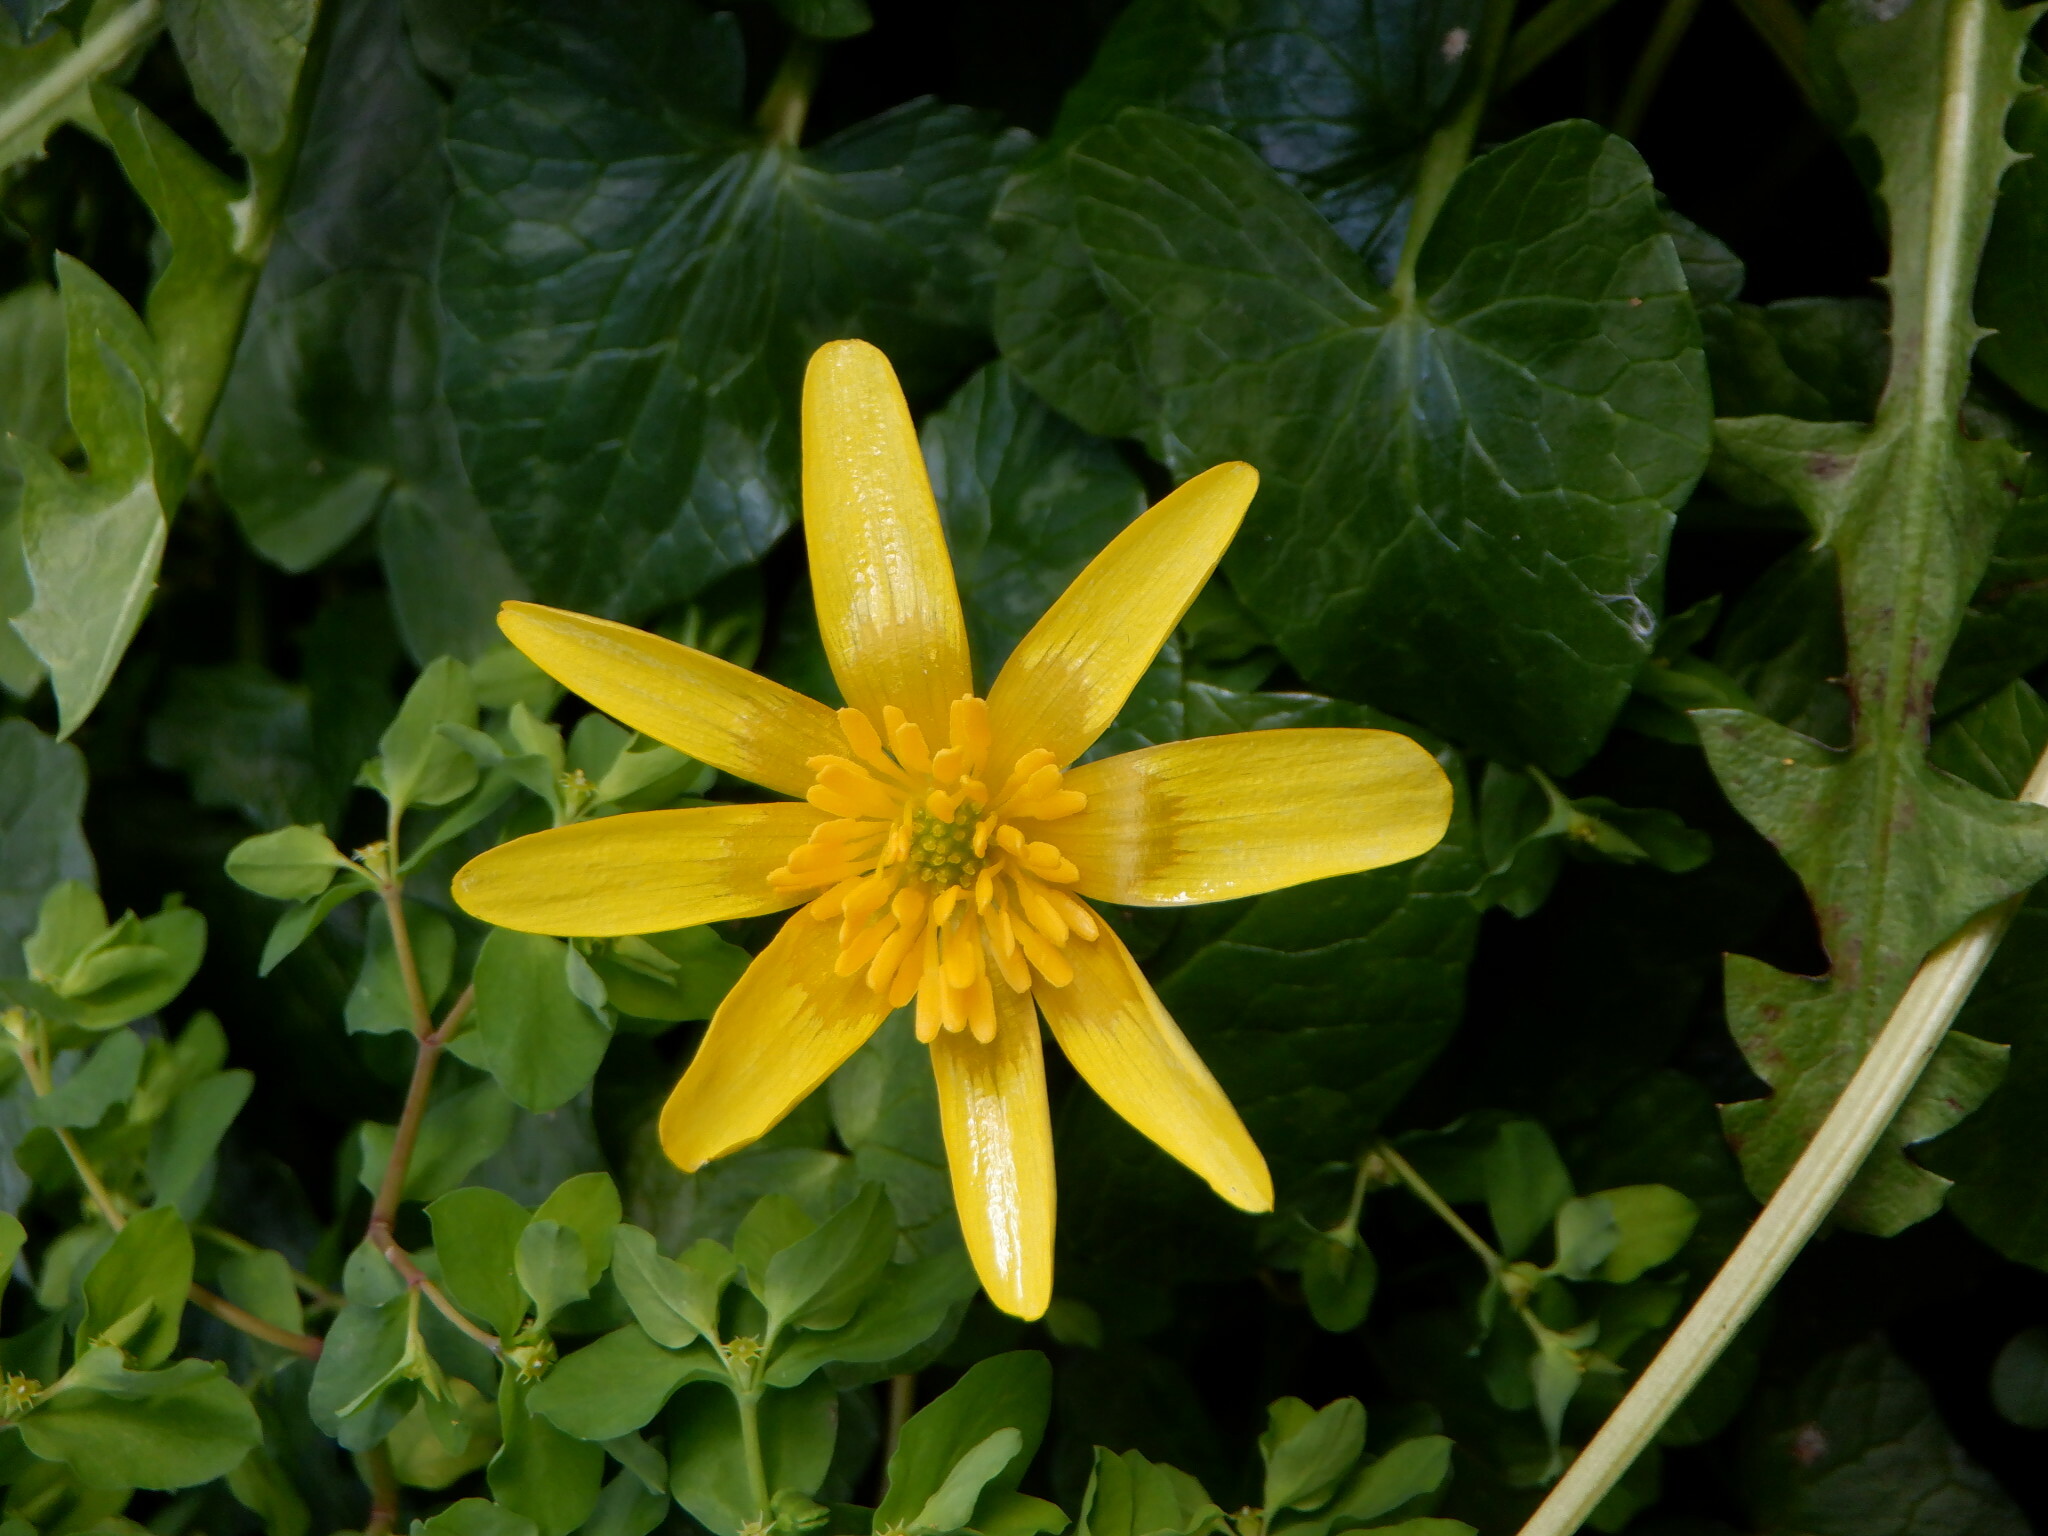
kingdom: Plantae
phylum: Tracheophyta
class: Magnoliopsida
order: Ranunculales
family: Ranunculaceae
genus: Ficaria
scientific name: Ficaria verna
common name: Lesser celandine
